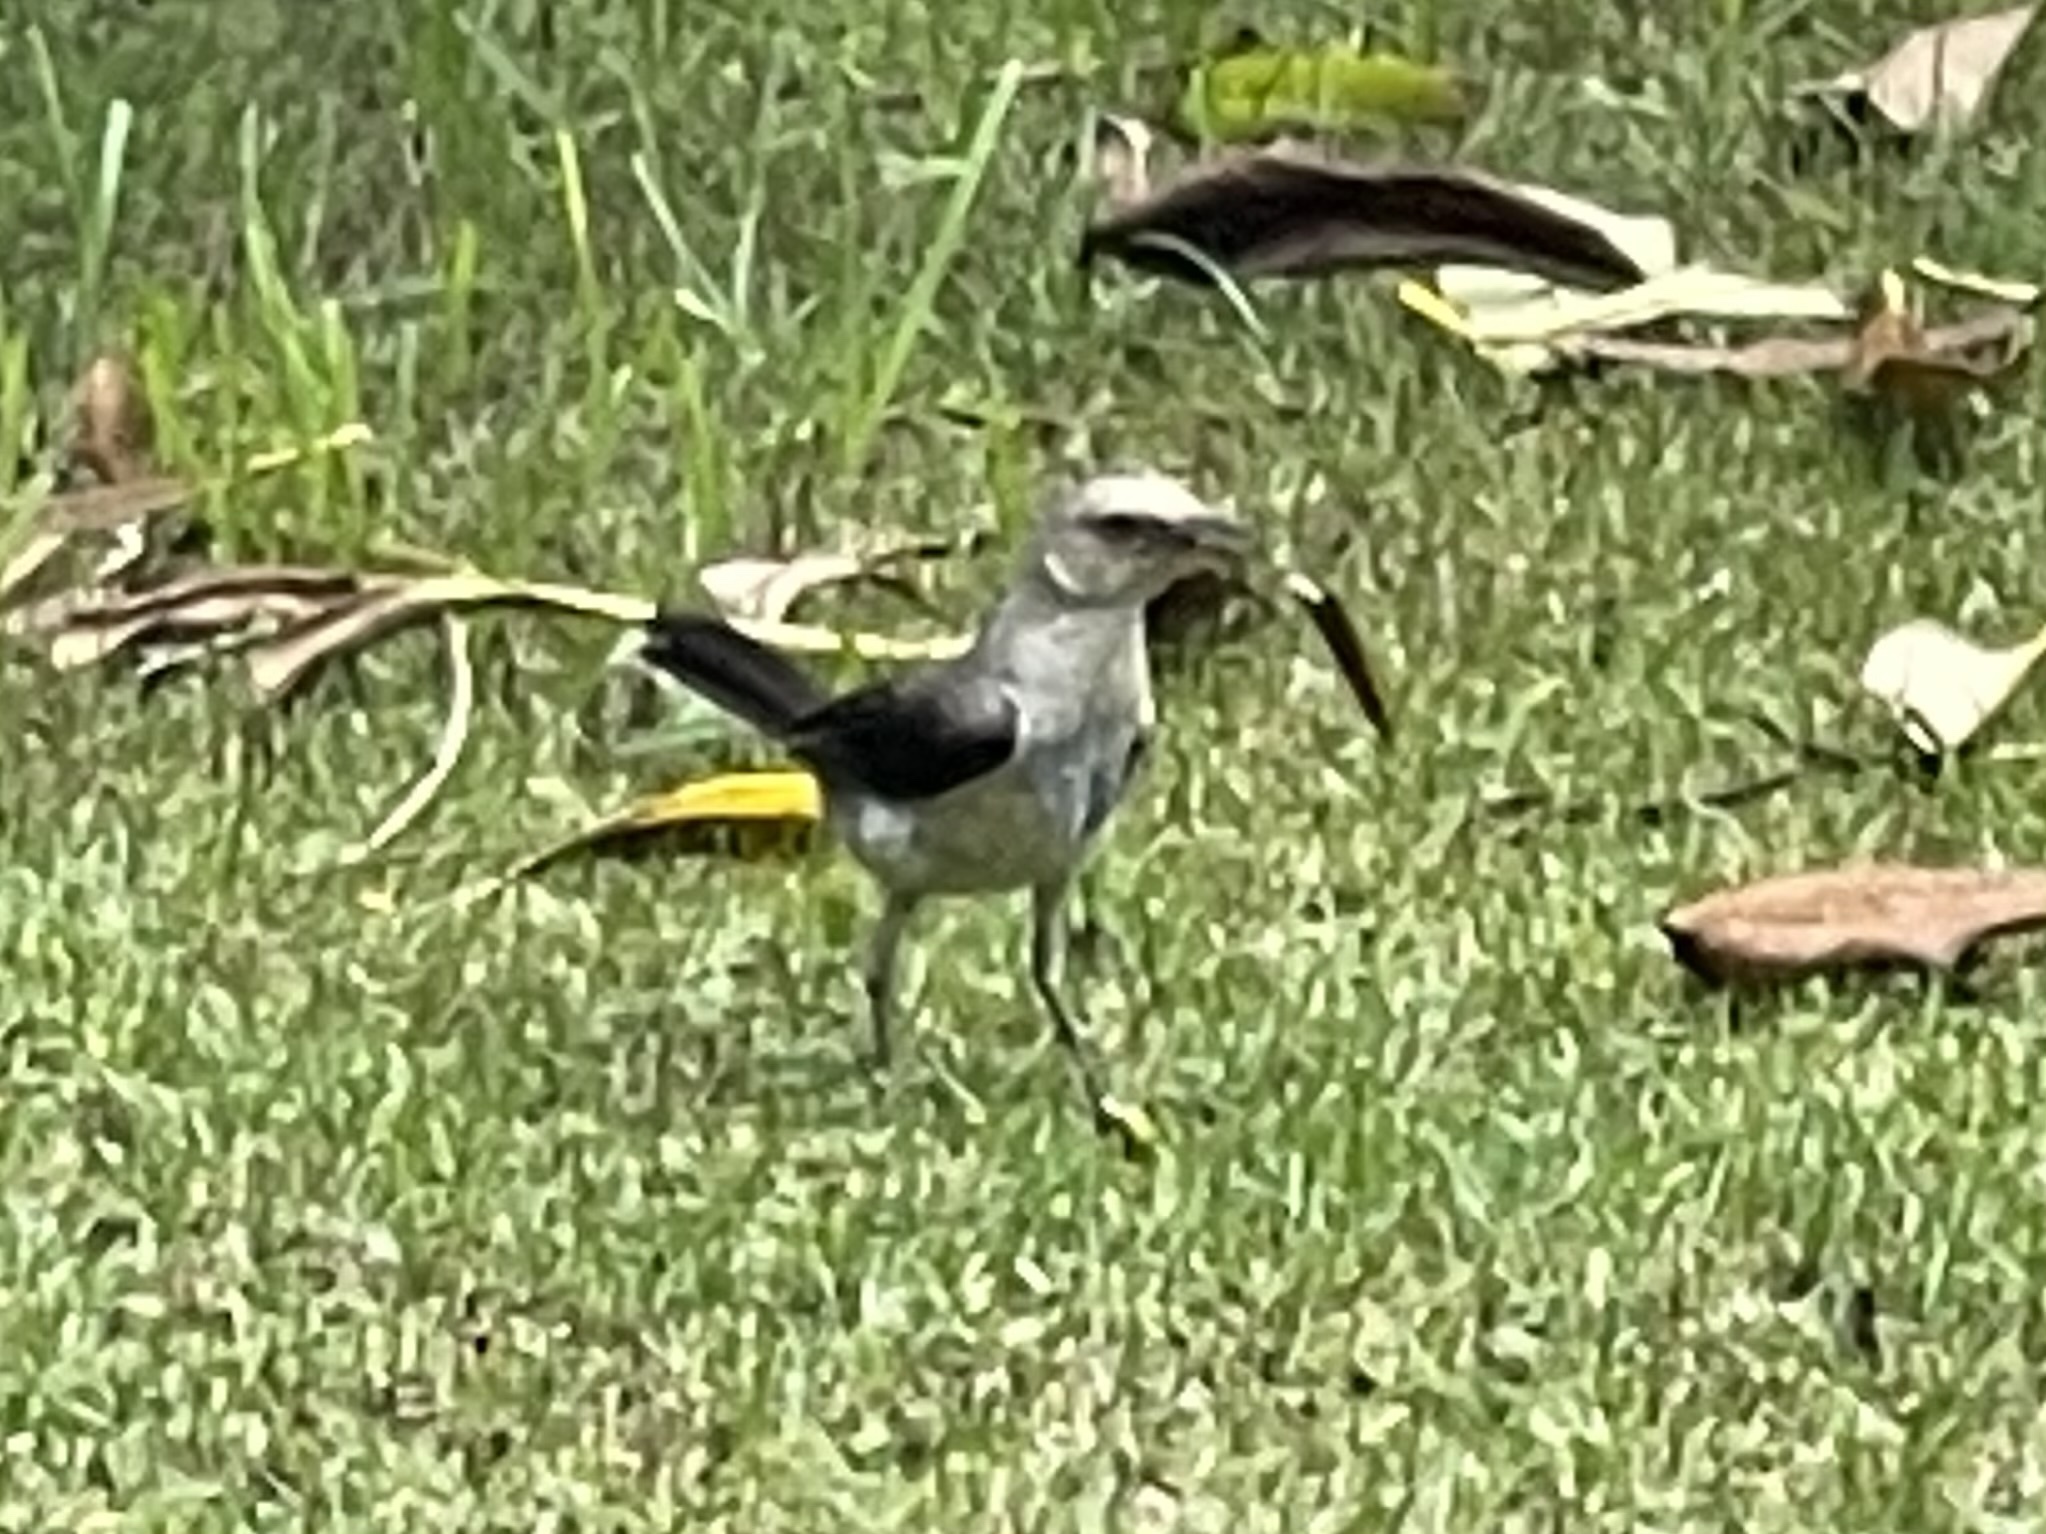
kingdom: Animalia
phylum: Chordata
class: Aves
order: Passeriformes
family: Mimidae
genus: Mimus
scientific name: Mimus gilvus
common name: Tropical mockingbird
